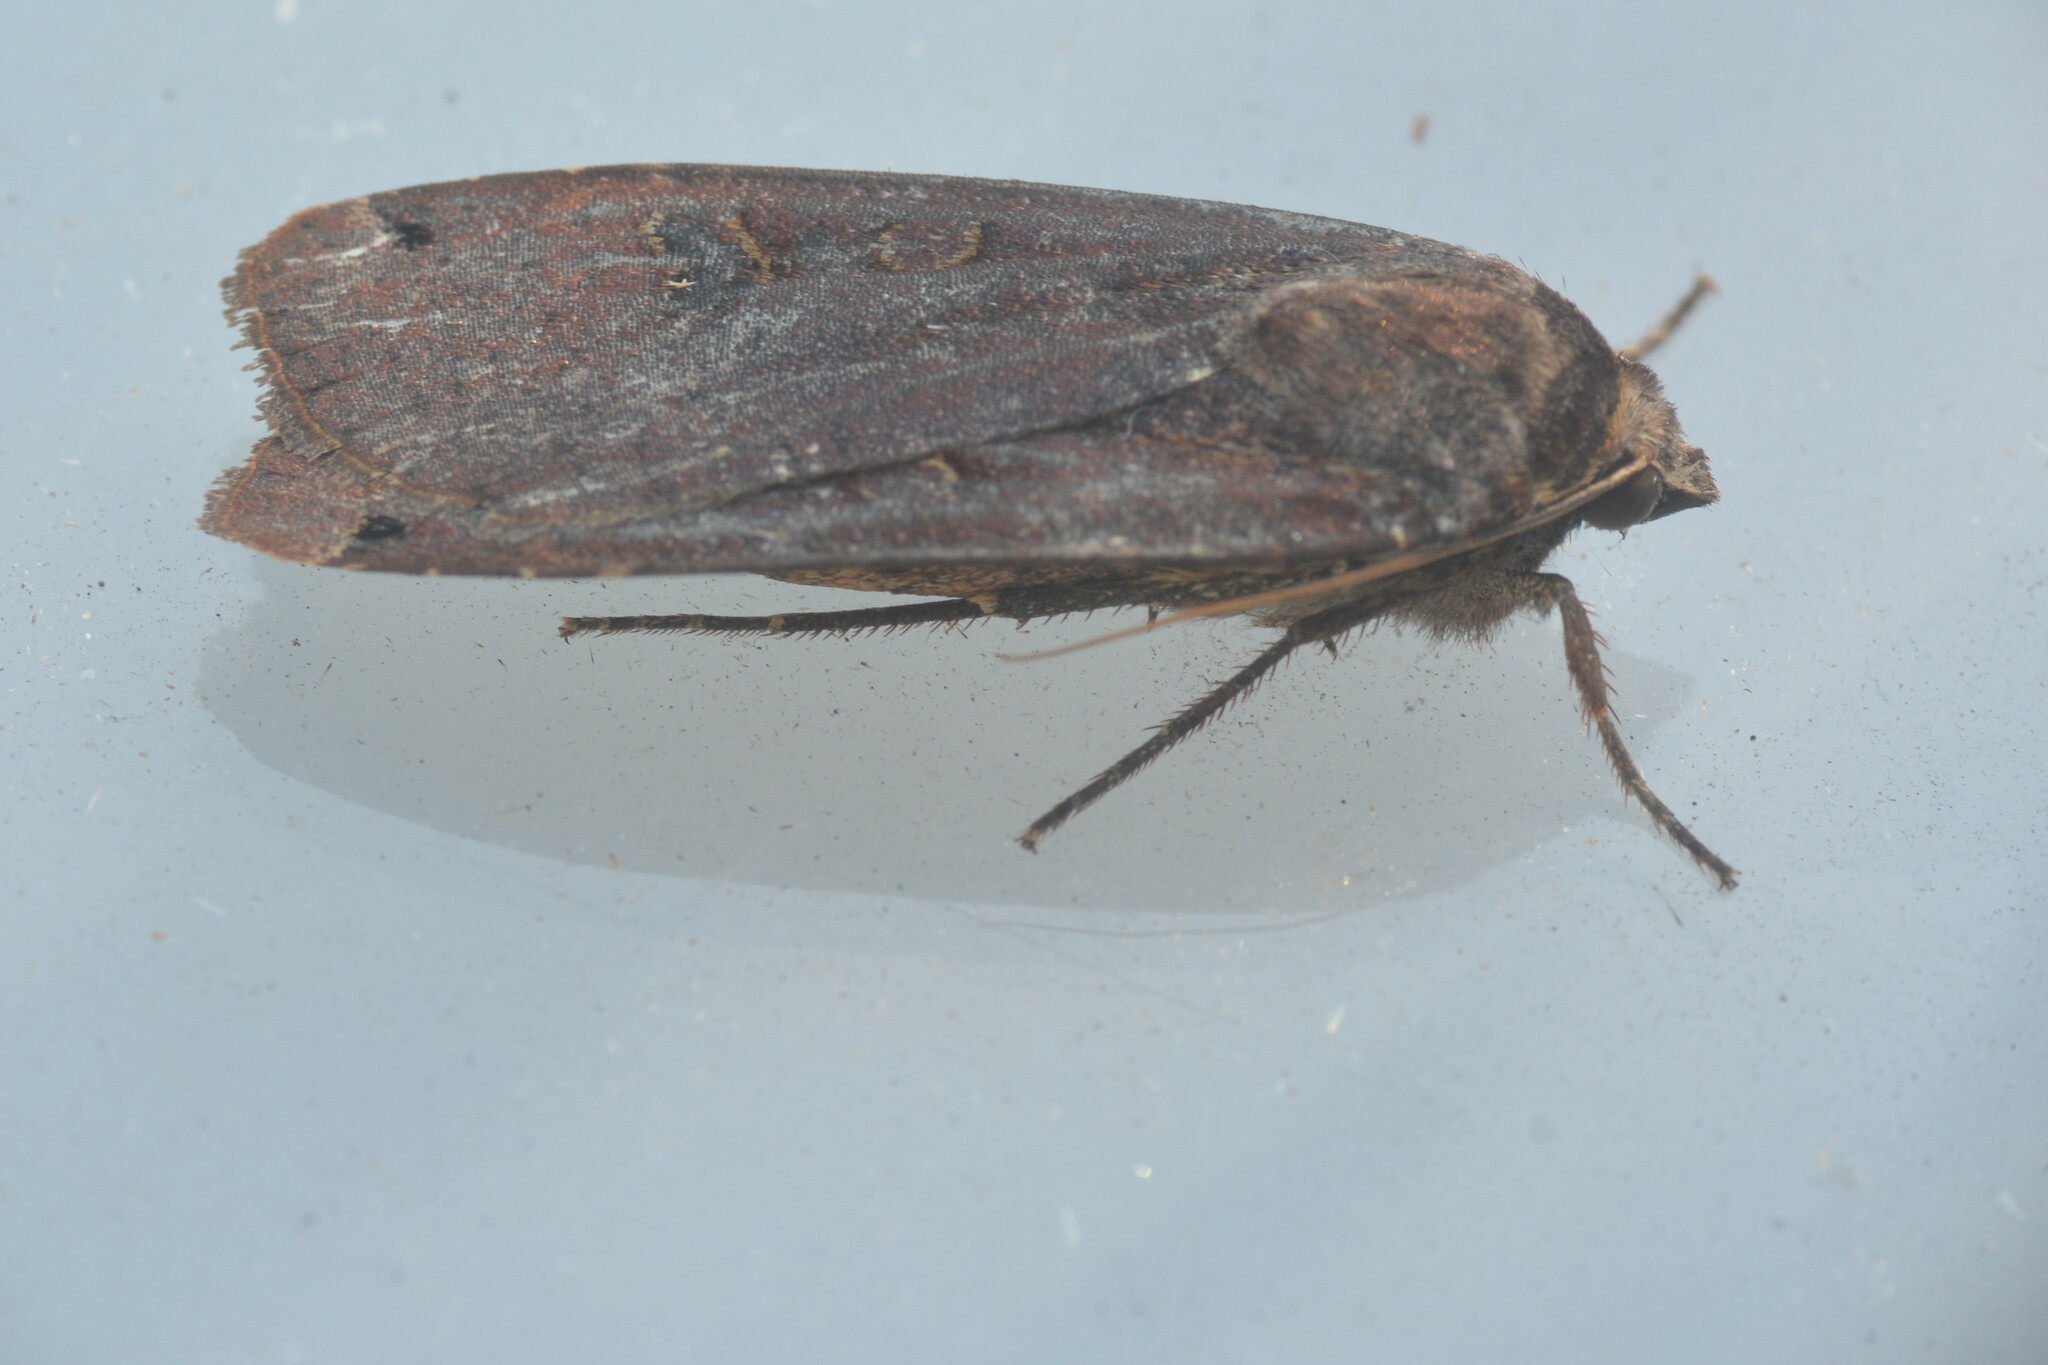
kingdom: Animalia
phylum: Arthropoda
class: Insecta
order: Lepidoptera
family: Noctuidae
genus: Noctua
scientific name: Noctua pronuba
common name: Large yellow underwing
